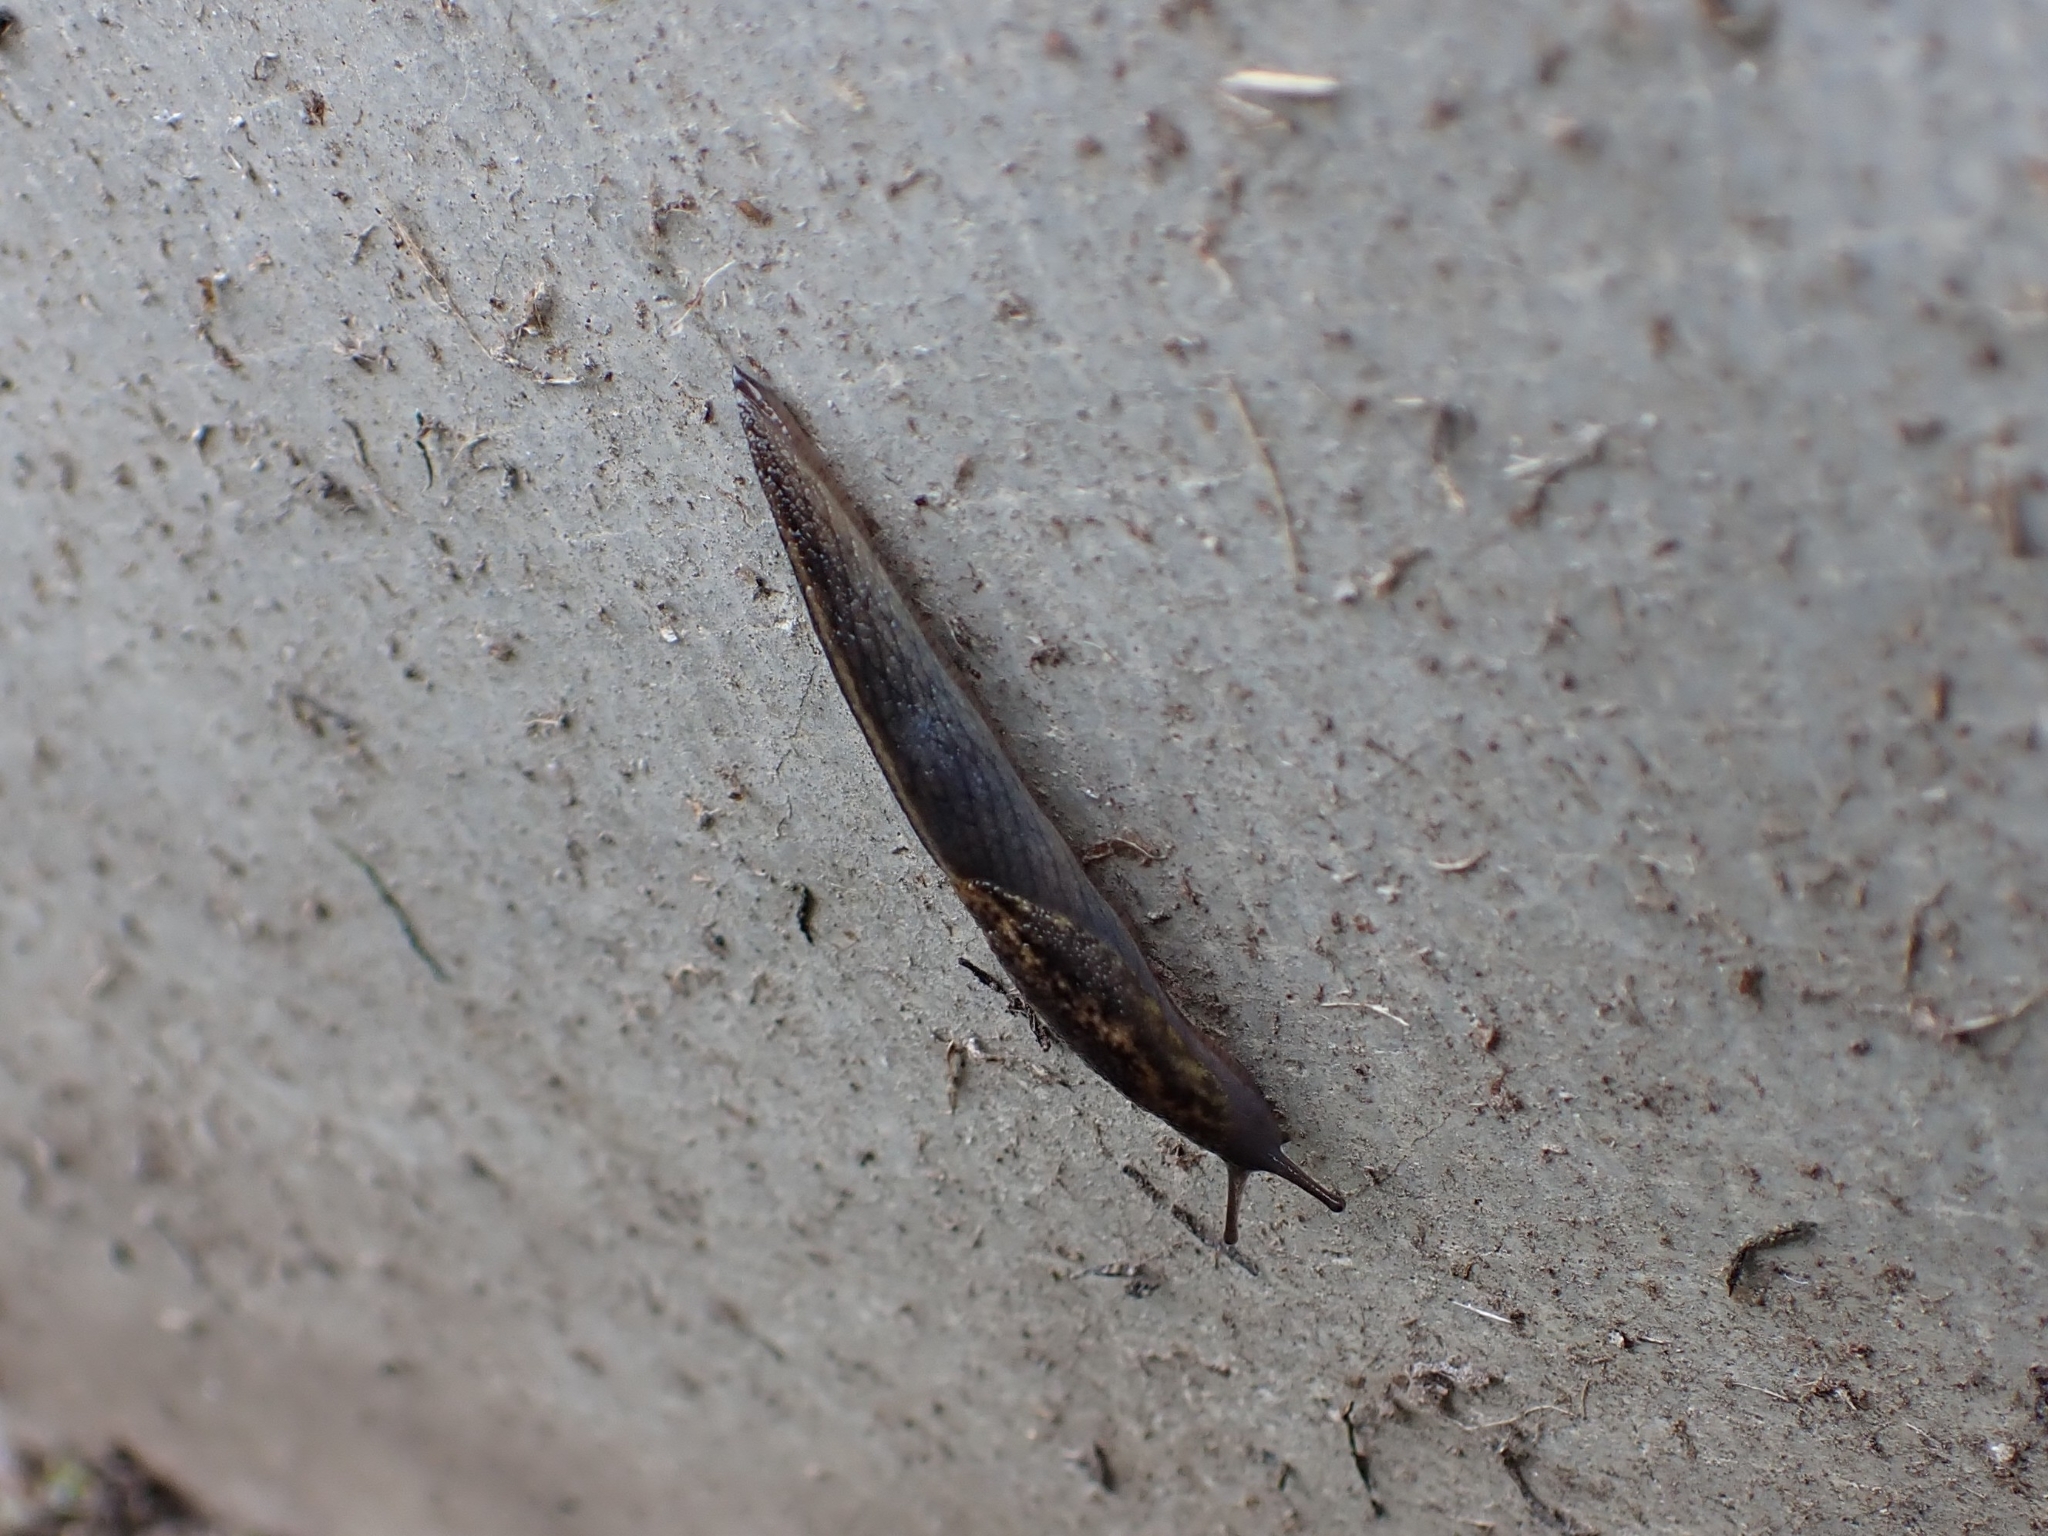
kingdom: Animalia
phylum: Mollusca
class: Gastropoda
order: Stylommatophora
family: Ariolimacidae
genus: Prophysaon
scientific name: Prophysaon andersonii
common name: Reticulate taildropper
